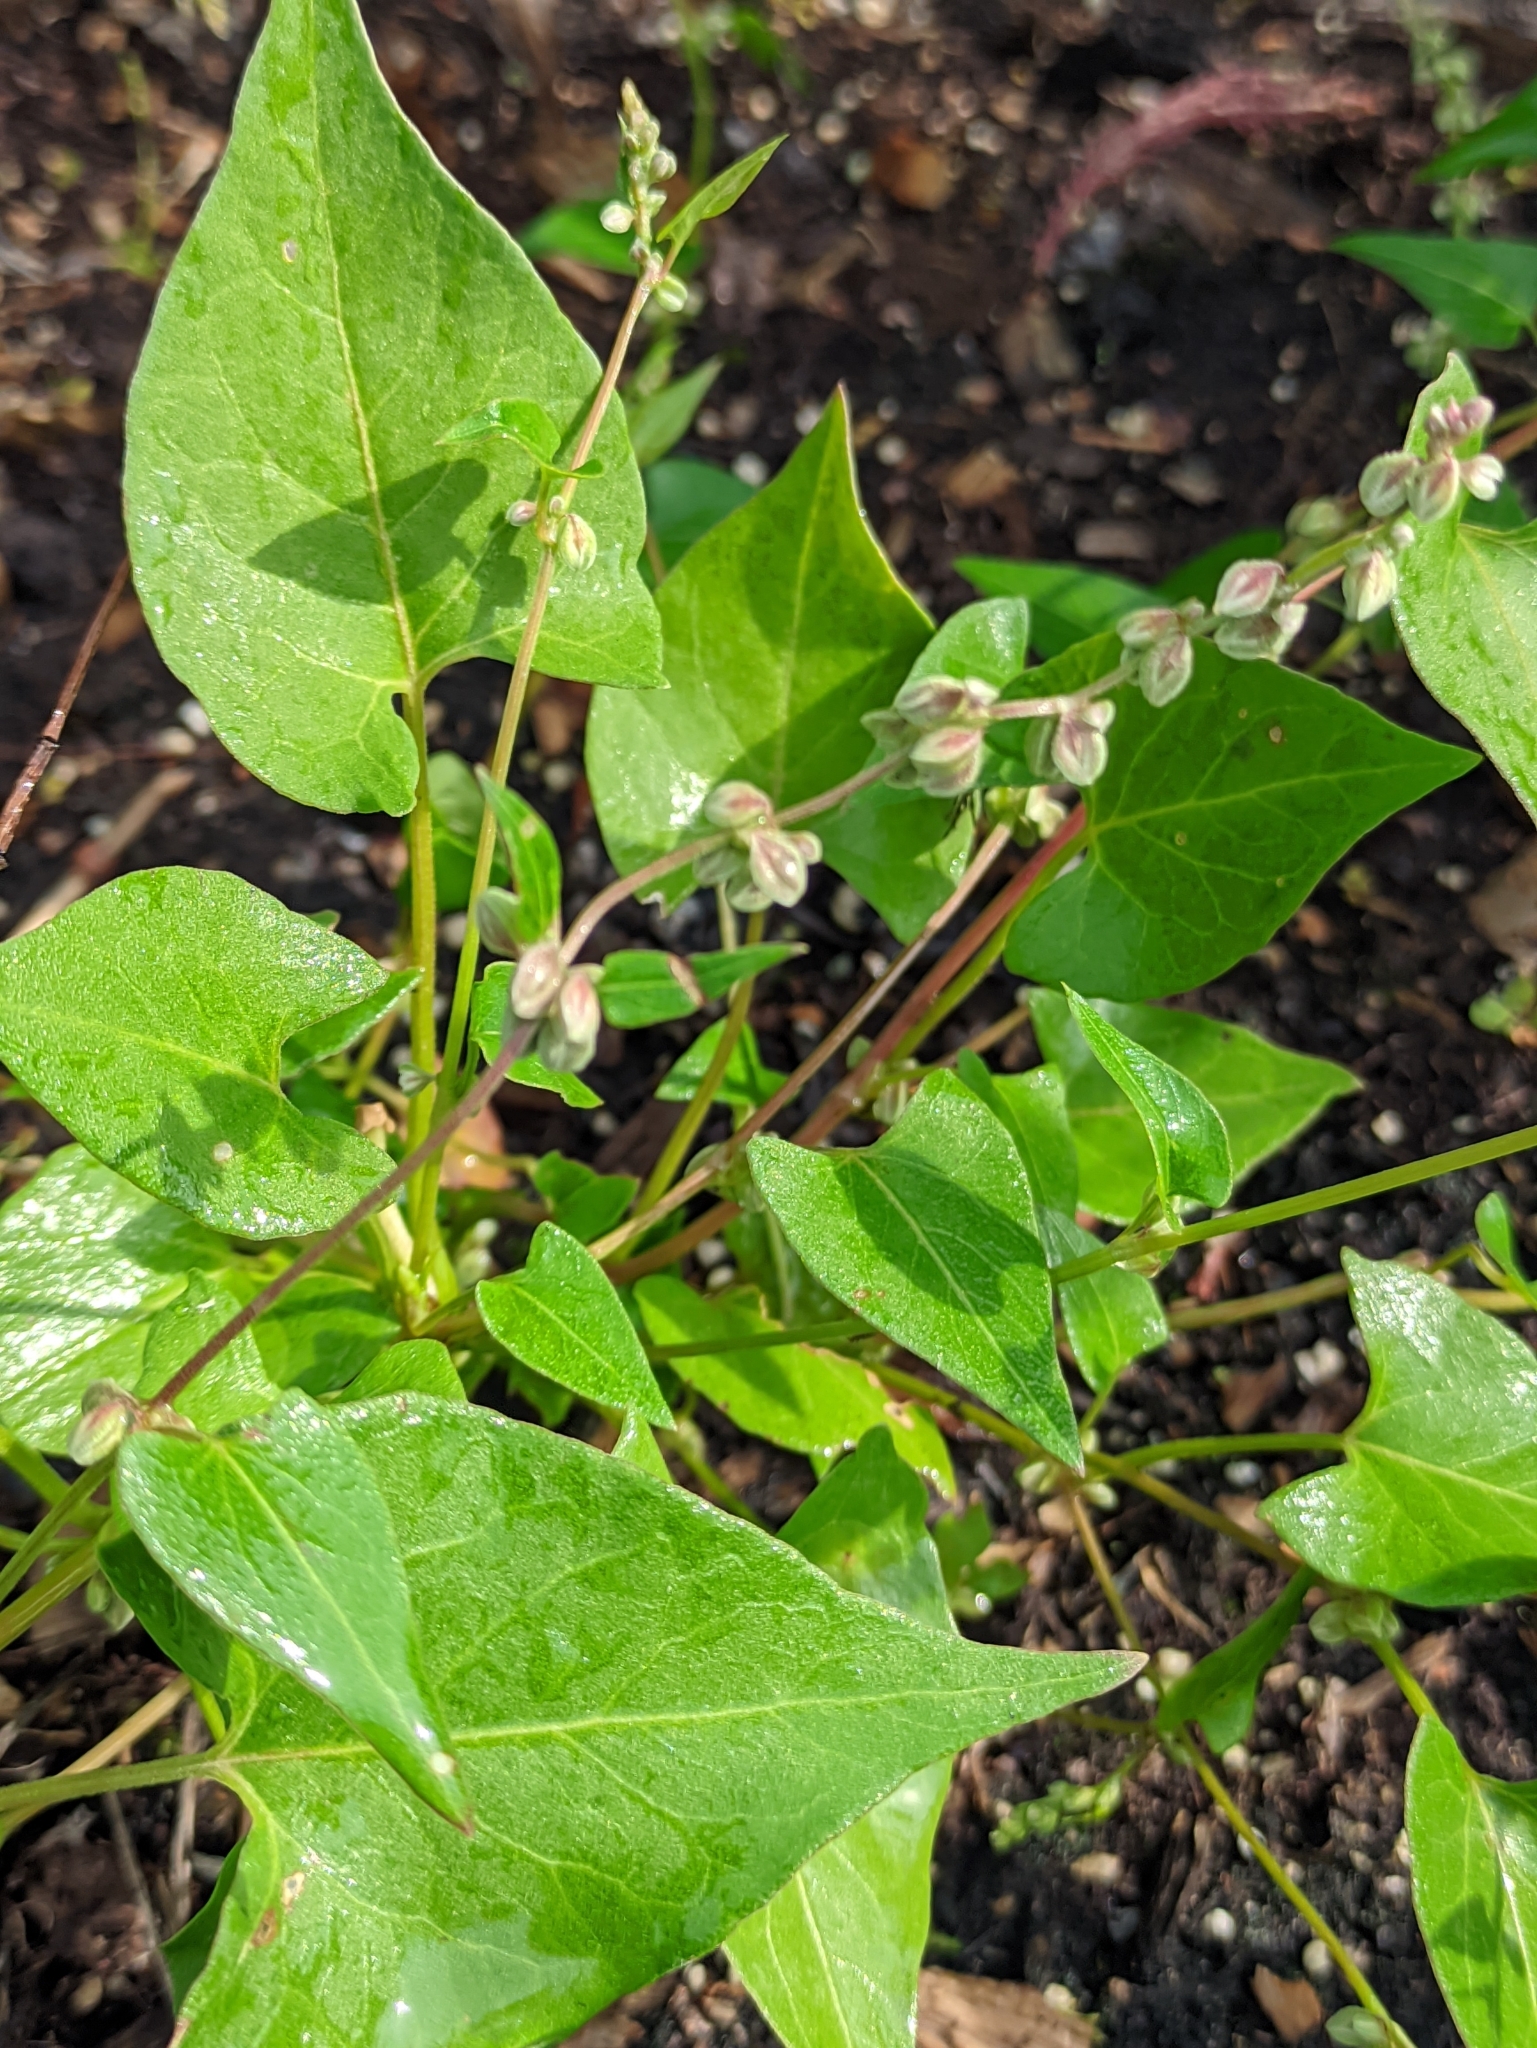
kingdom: Plantae
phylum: Tracheophyta
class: Magnoliopsida
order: Caryophyllales
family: Polygonaceae
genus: Fallopia
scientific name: Fallopia convolvulus
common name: Black bindweed
